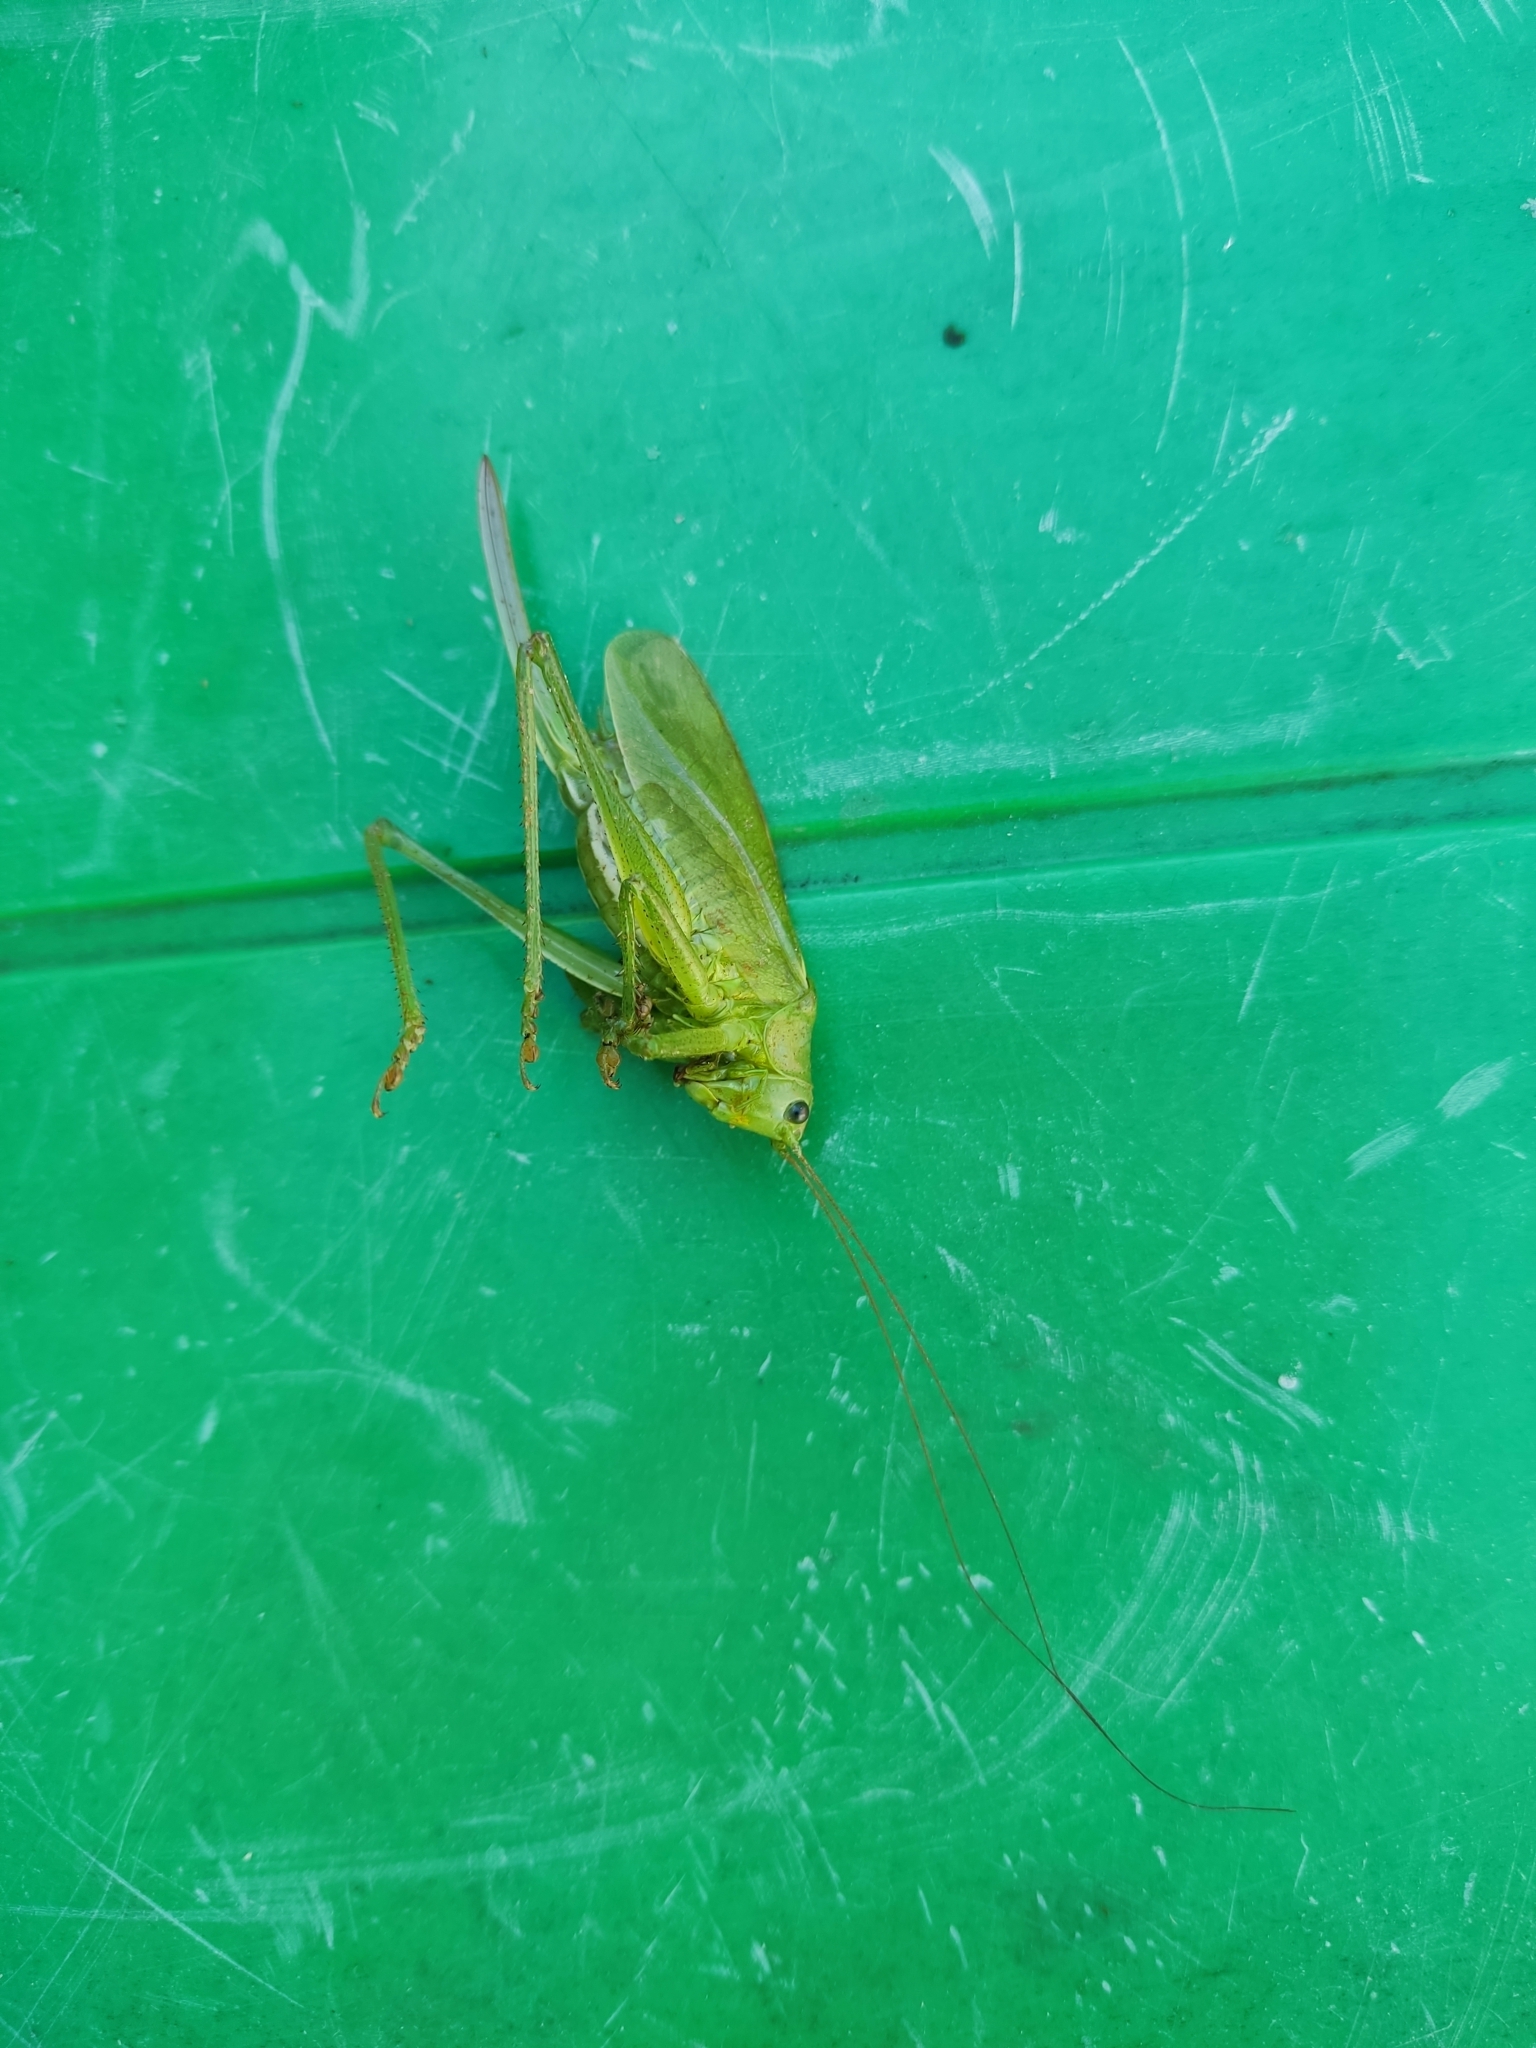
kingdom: Animalia
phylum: Arthropoda
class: Insecta
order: Orthoptera
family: Tettigoniidae
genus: Tettigonia
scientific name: Tettigonia cantans
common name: Upland green bush-cricket
